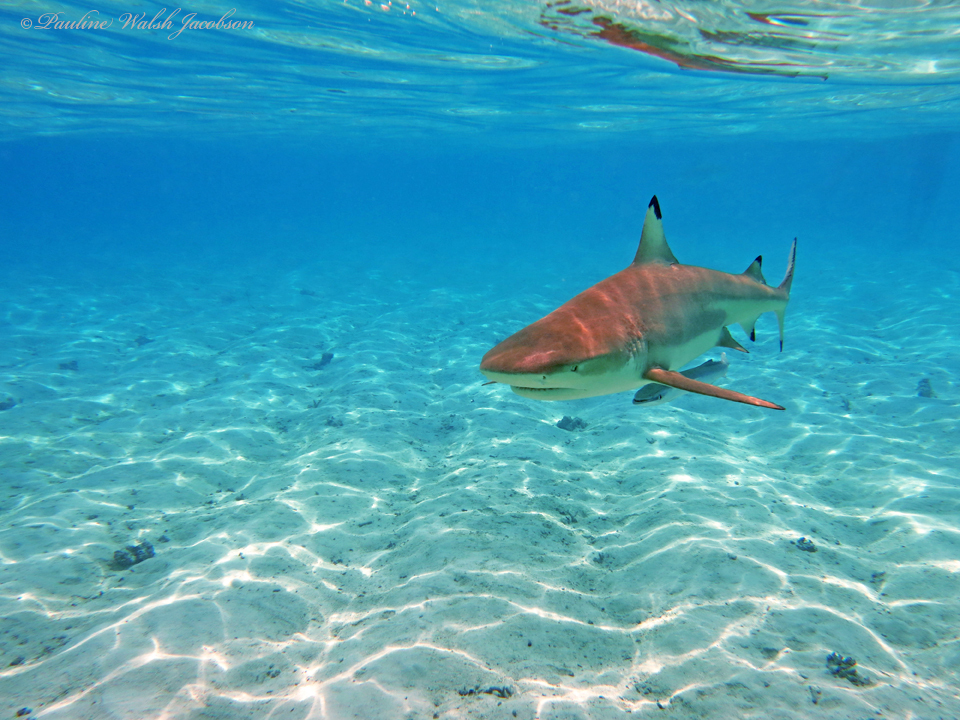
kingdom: Animalia
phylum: Chordata
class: Elasmobranchii
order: Carcharhiniformes
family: Carcharhinidae
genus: Carcharhinus
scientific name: Carcharhinus melanopterus
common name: Blacktip reef shark
